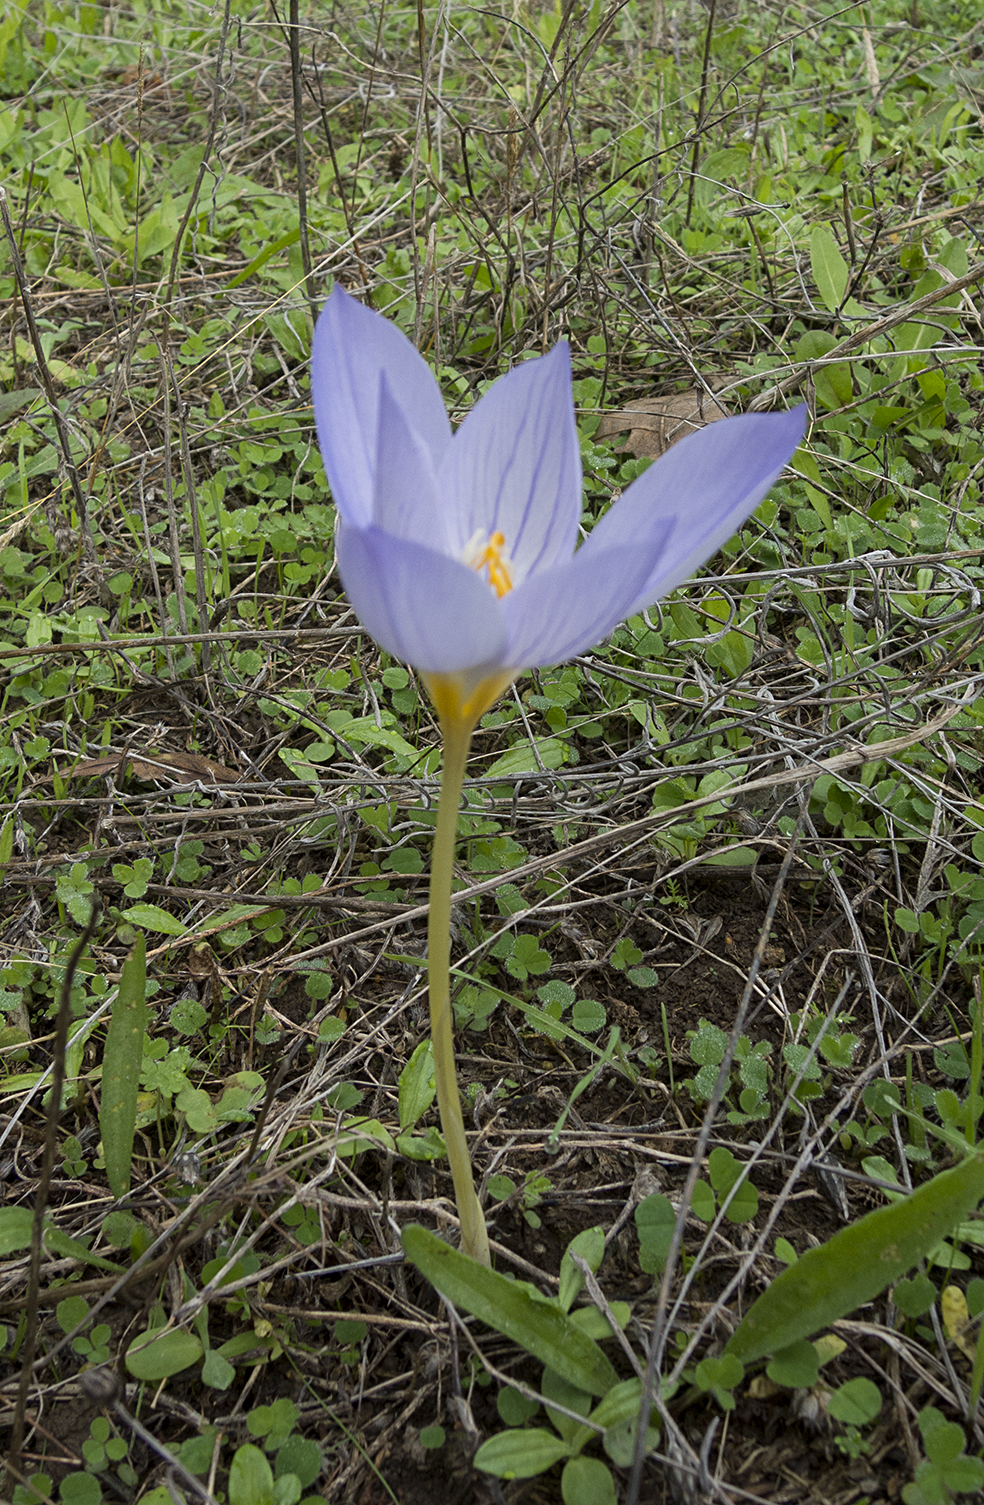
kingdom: Plantae
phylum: Tracheophyta
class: Liliopsida
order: Asparagales
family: Iridaceae
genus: Crocus
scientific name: Crocus ibrahimii
